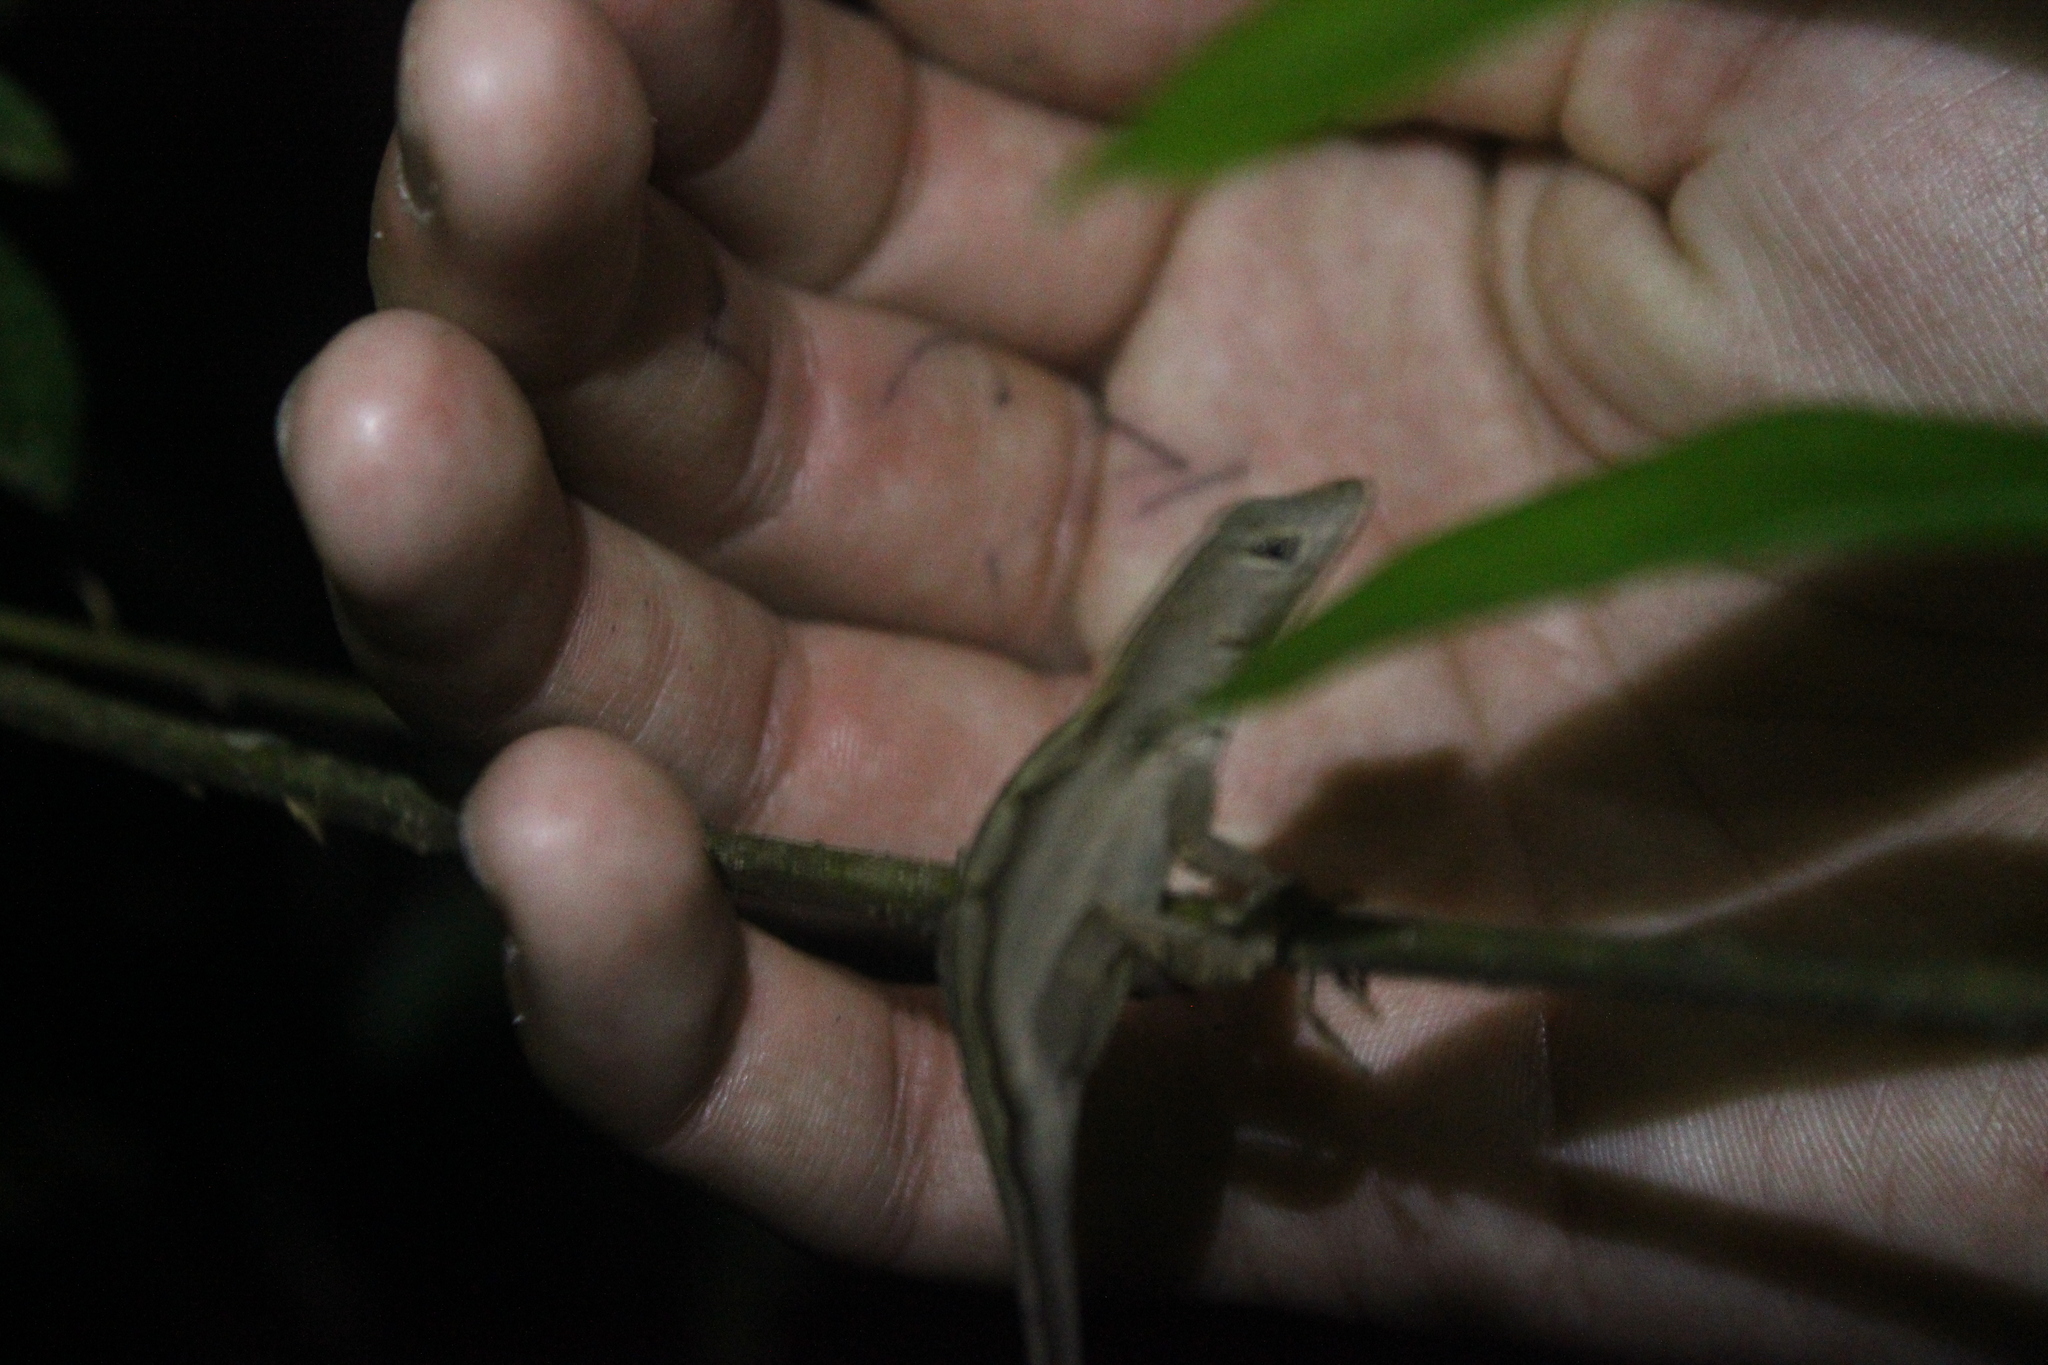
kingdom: Animalia
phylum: Chordata
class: Squamata
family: Dactyloidae
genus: Anolis
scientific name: Anolis sagrei
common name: Brown anole
